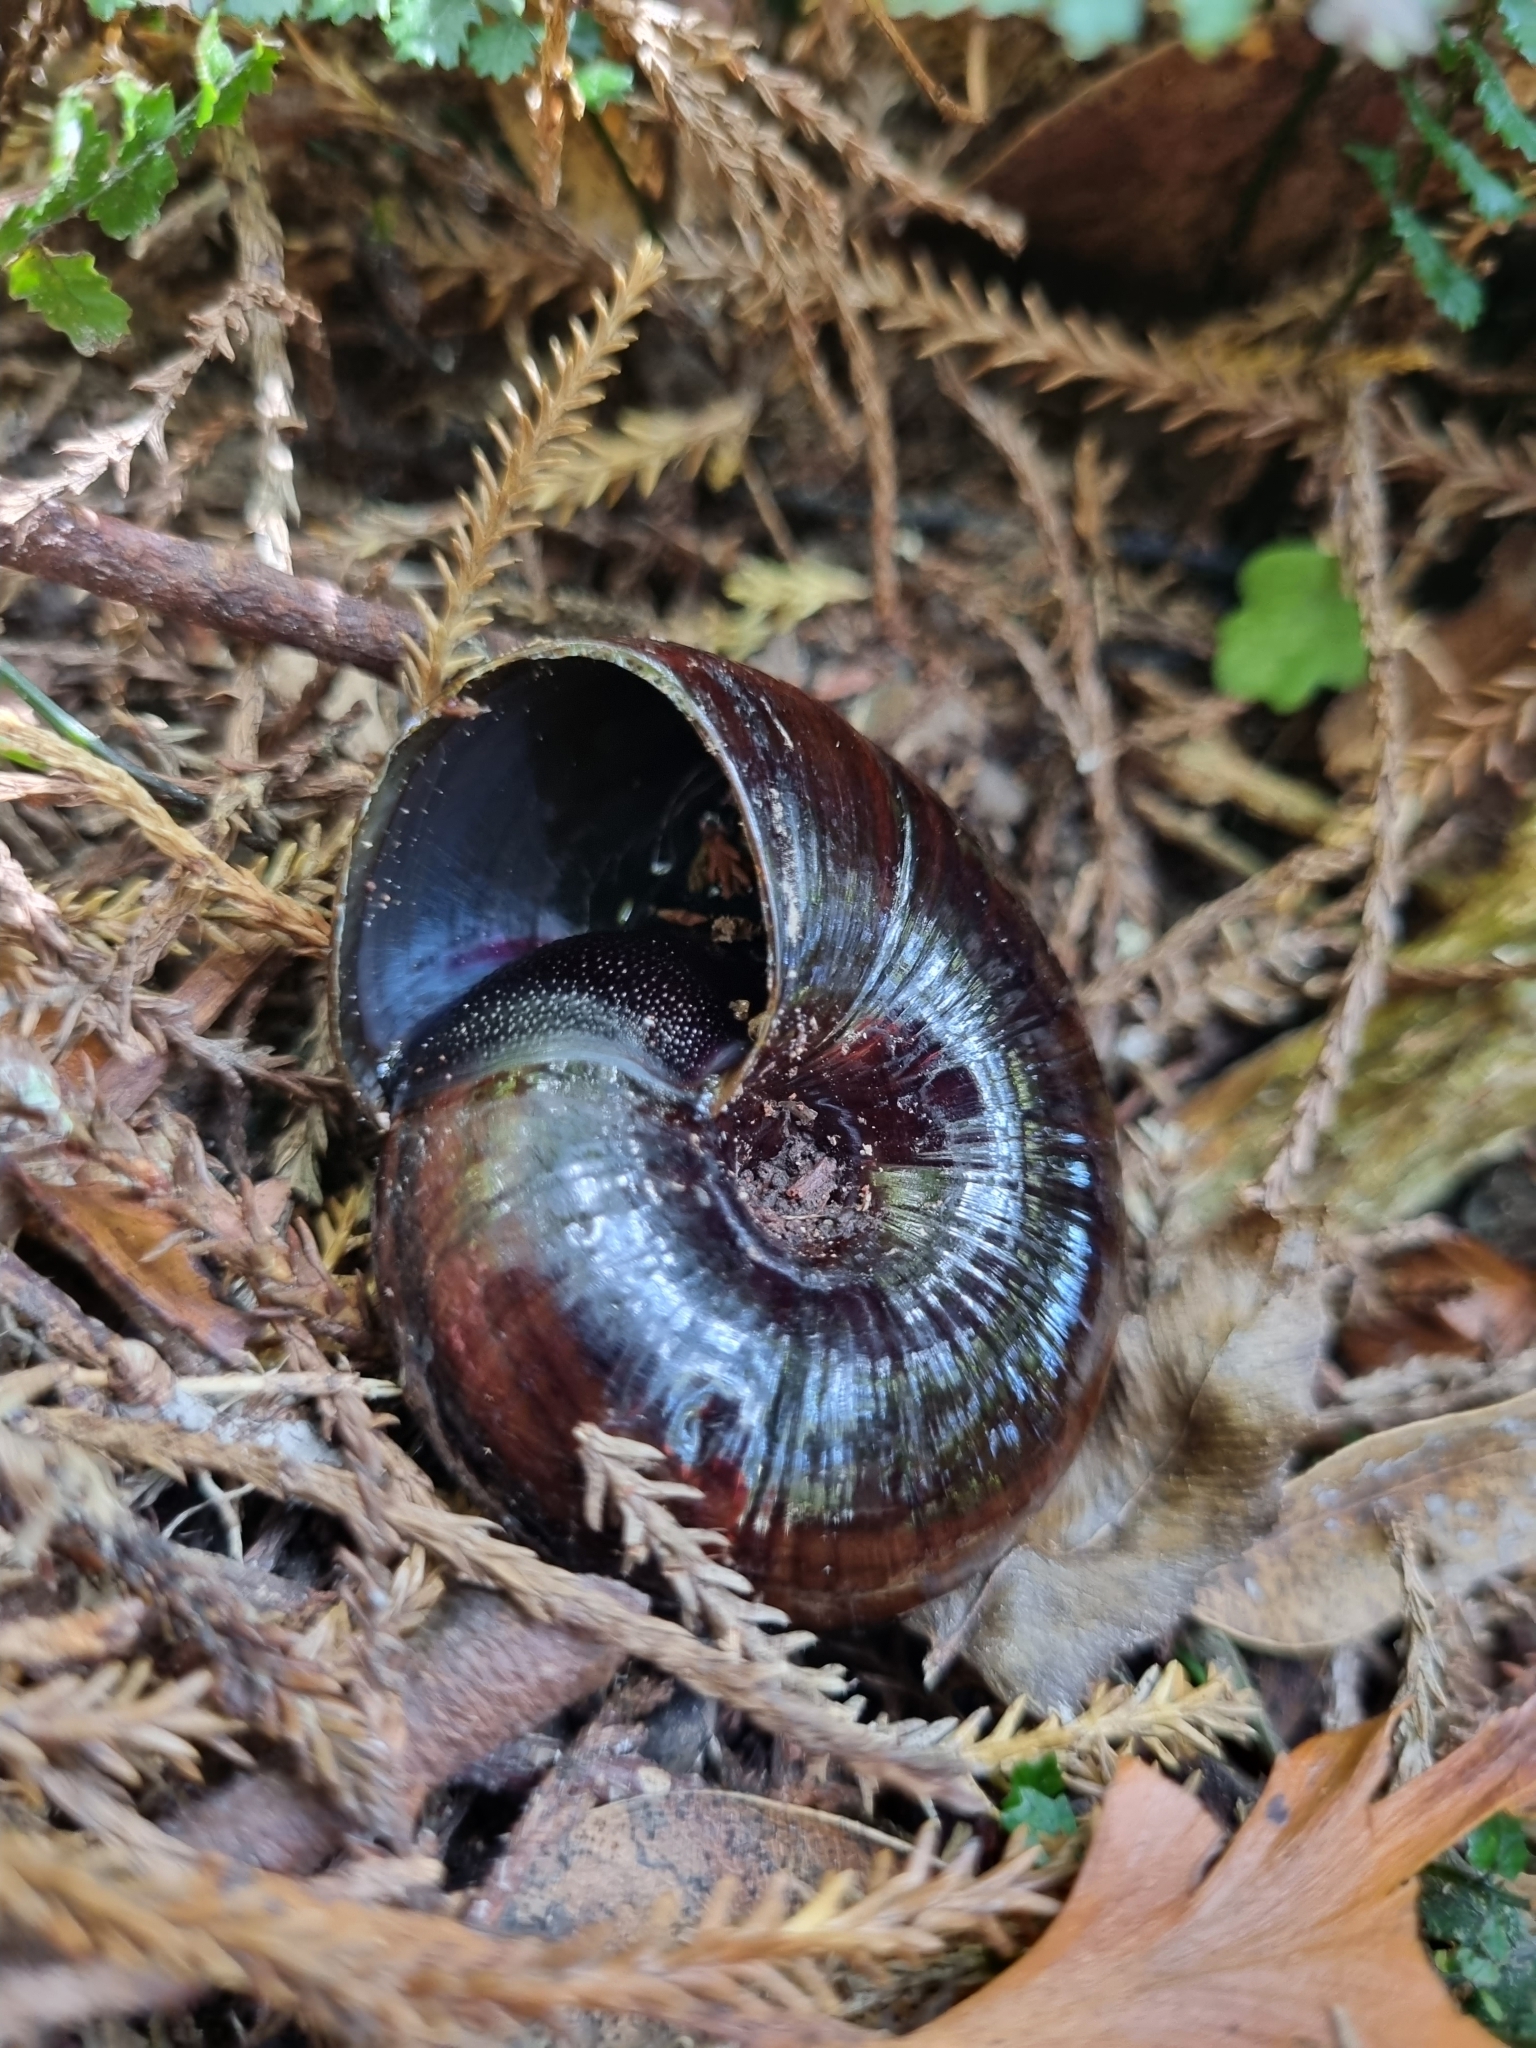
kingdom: Animalia
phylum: Mollusca
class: Gastropoda
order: Stylommatophora
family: Rhytididae
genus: Powelliphanta
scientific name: Powelliphanta gilliesi
